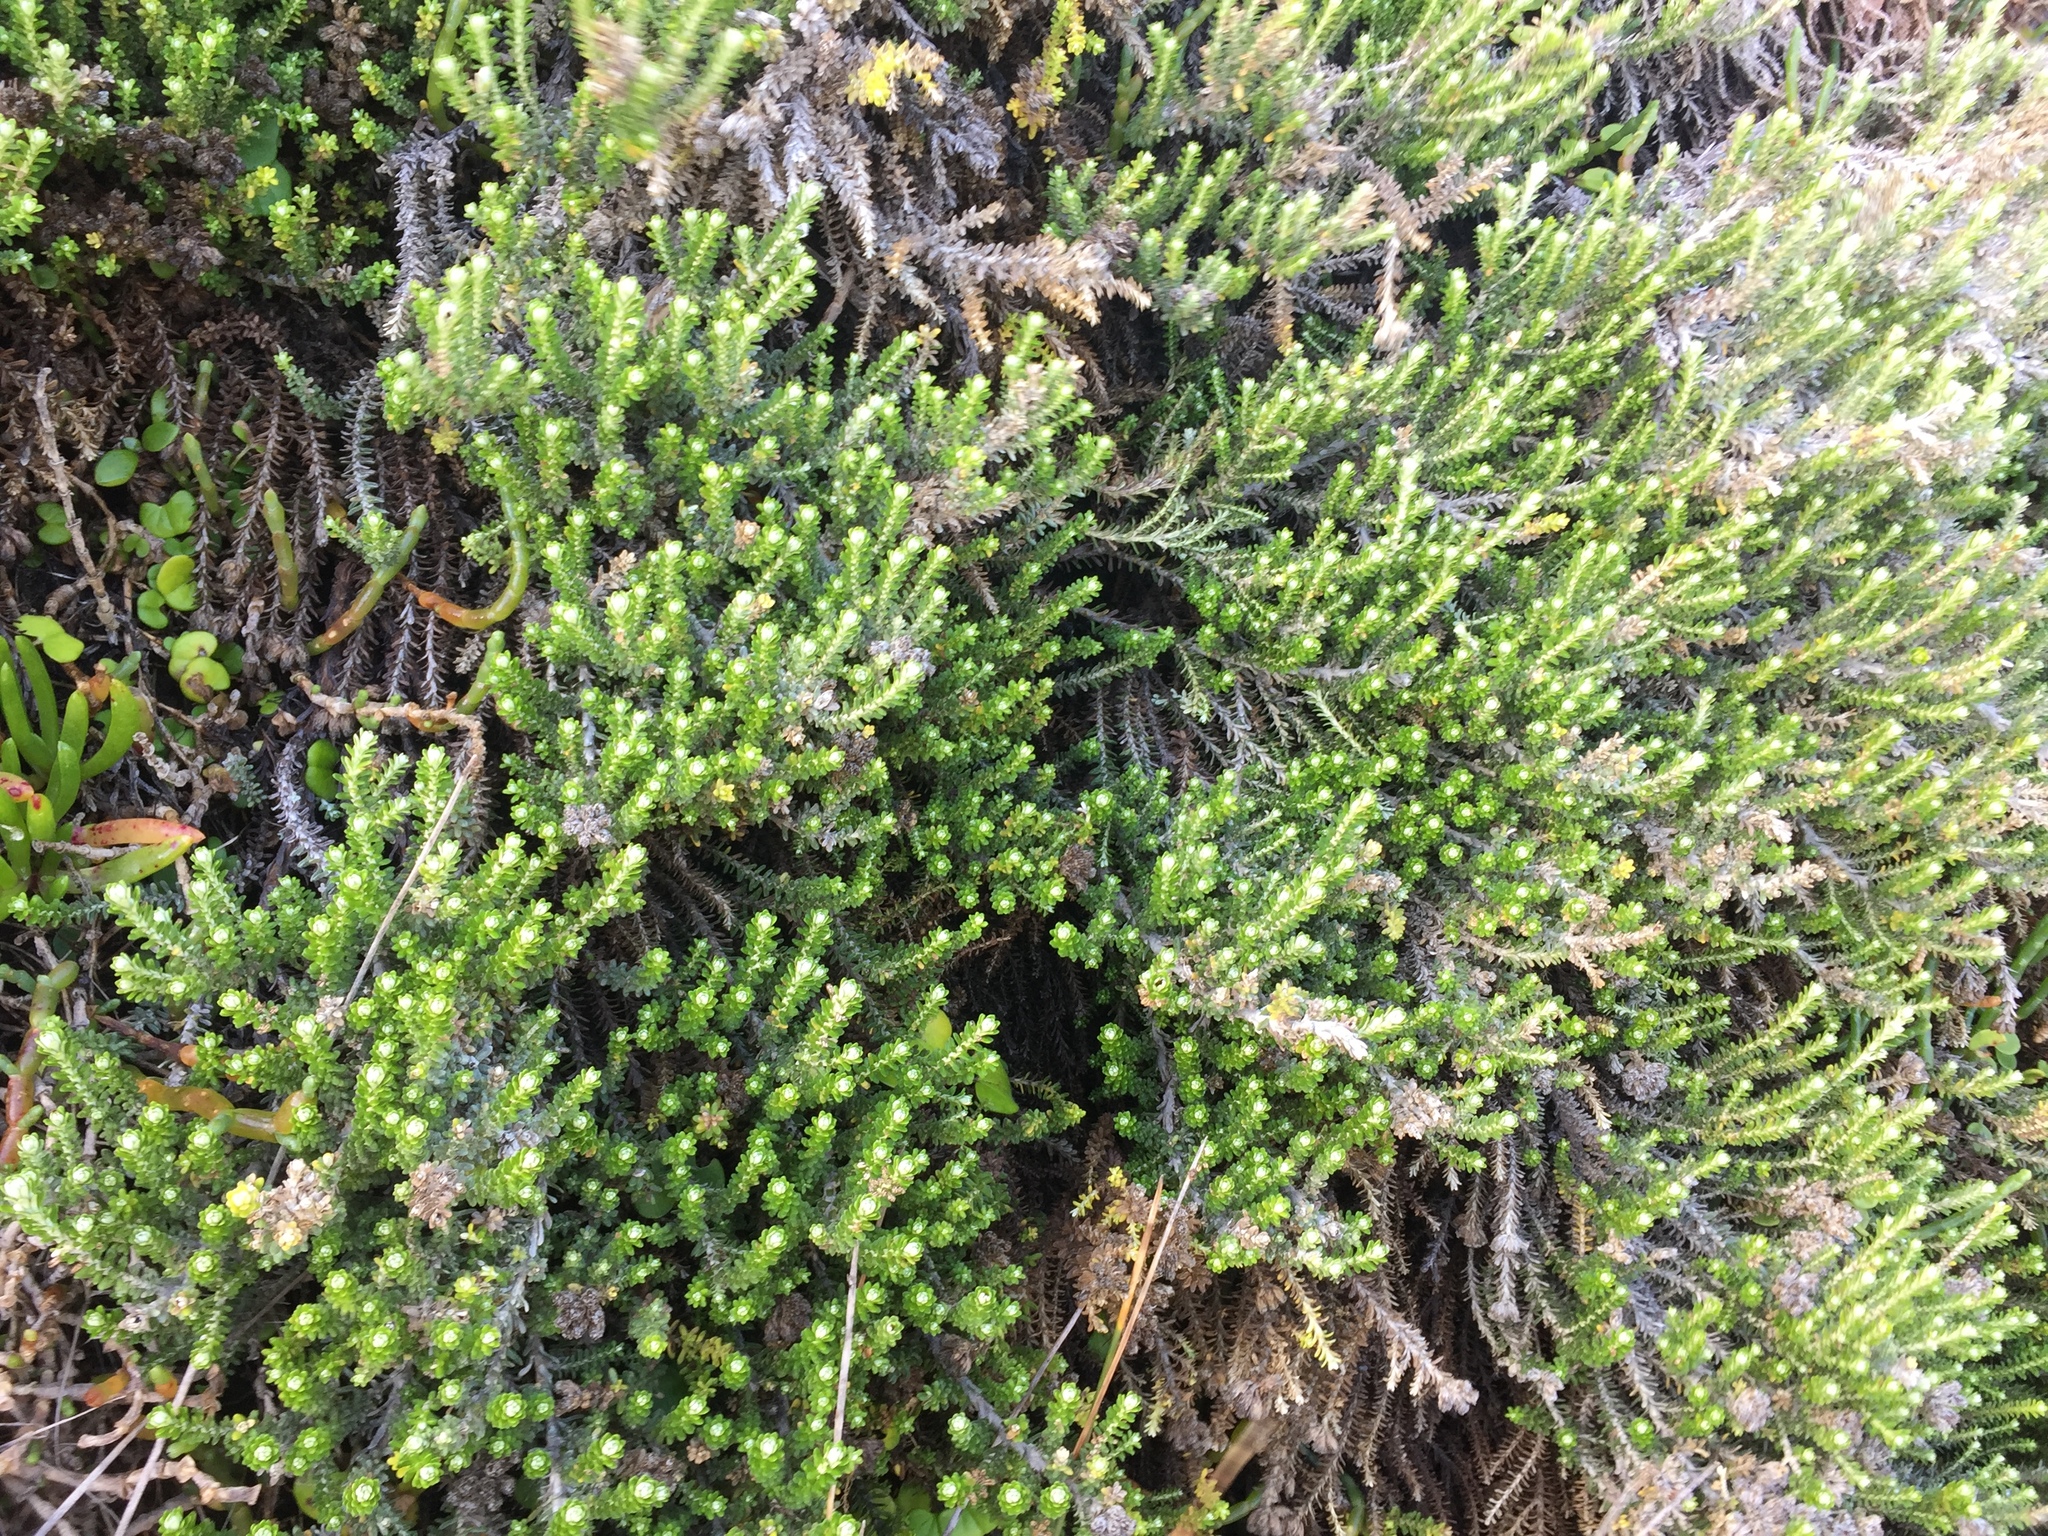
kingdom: Plantae
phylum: Tracheophyta
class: Magnoliopsida
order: Asterales
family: Asteraceae
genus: Ozothamnus
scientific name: Ozothamnus leptophyllus
